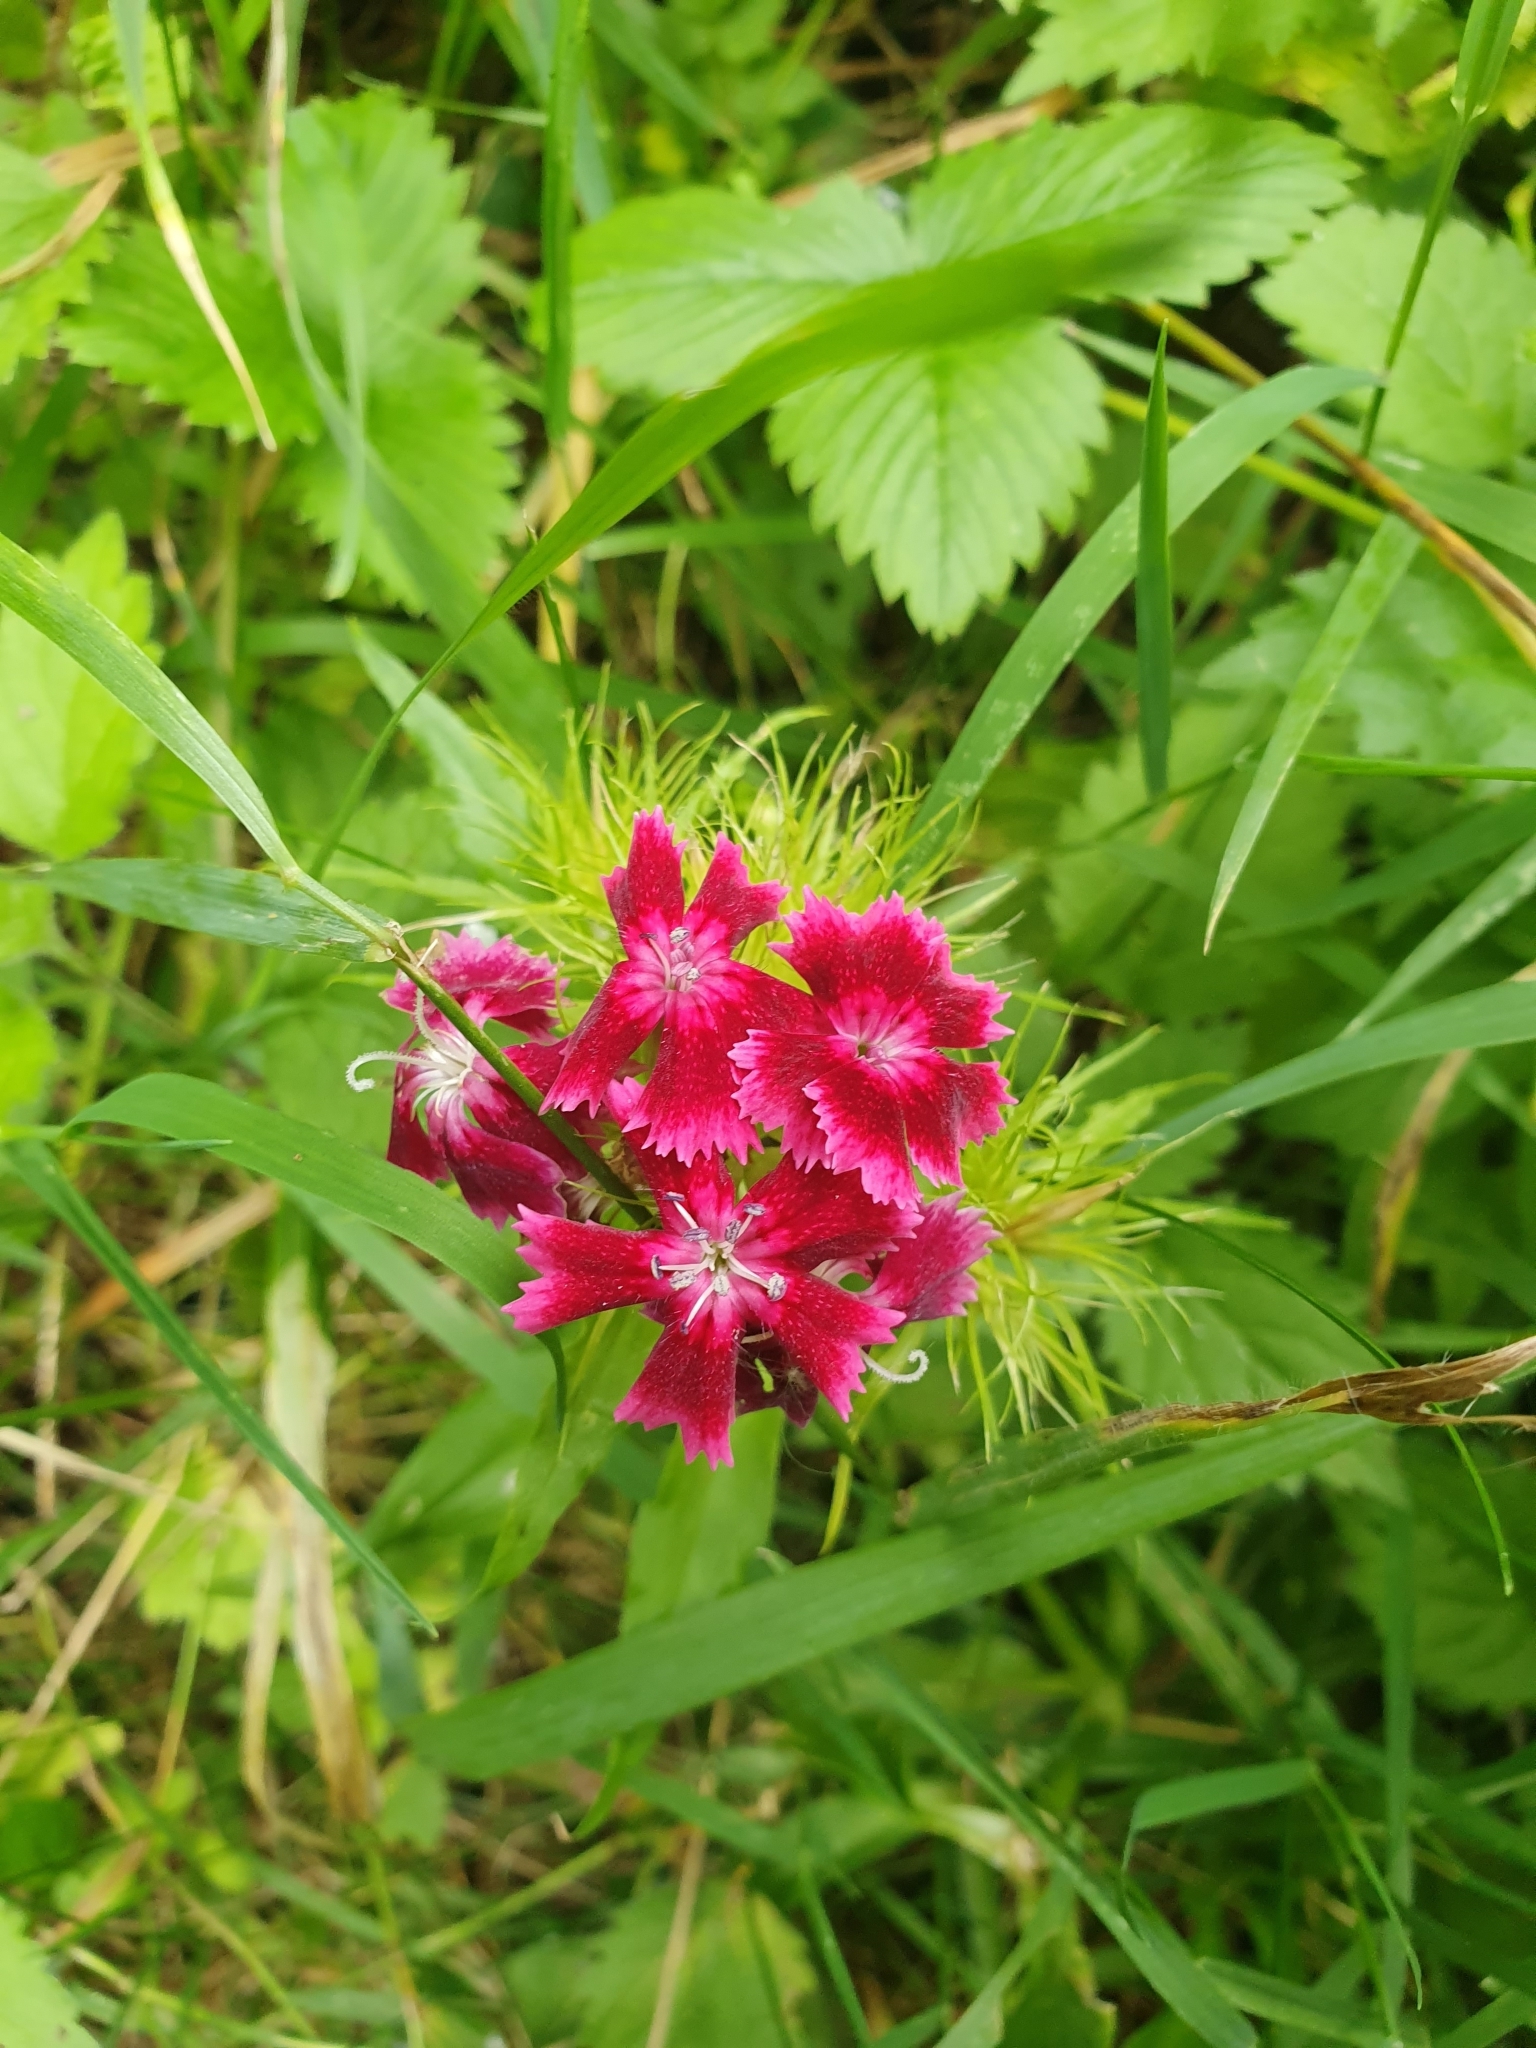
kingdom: Plantae
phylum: Tracheophyta
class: Magnoliopsida
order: Caryophyllales
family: Caryophyllaceae
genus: Dianthus
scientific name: Dianthus barbatus
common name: Sweet-william
